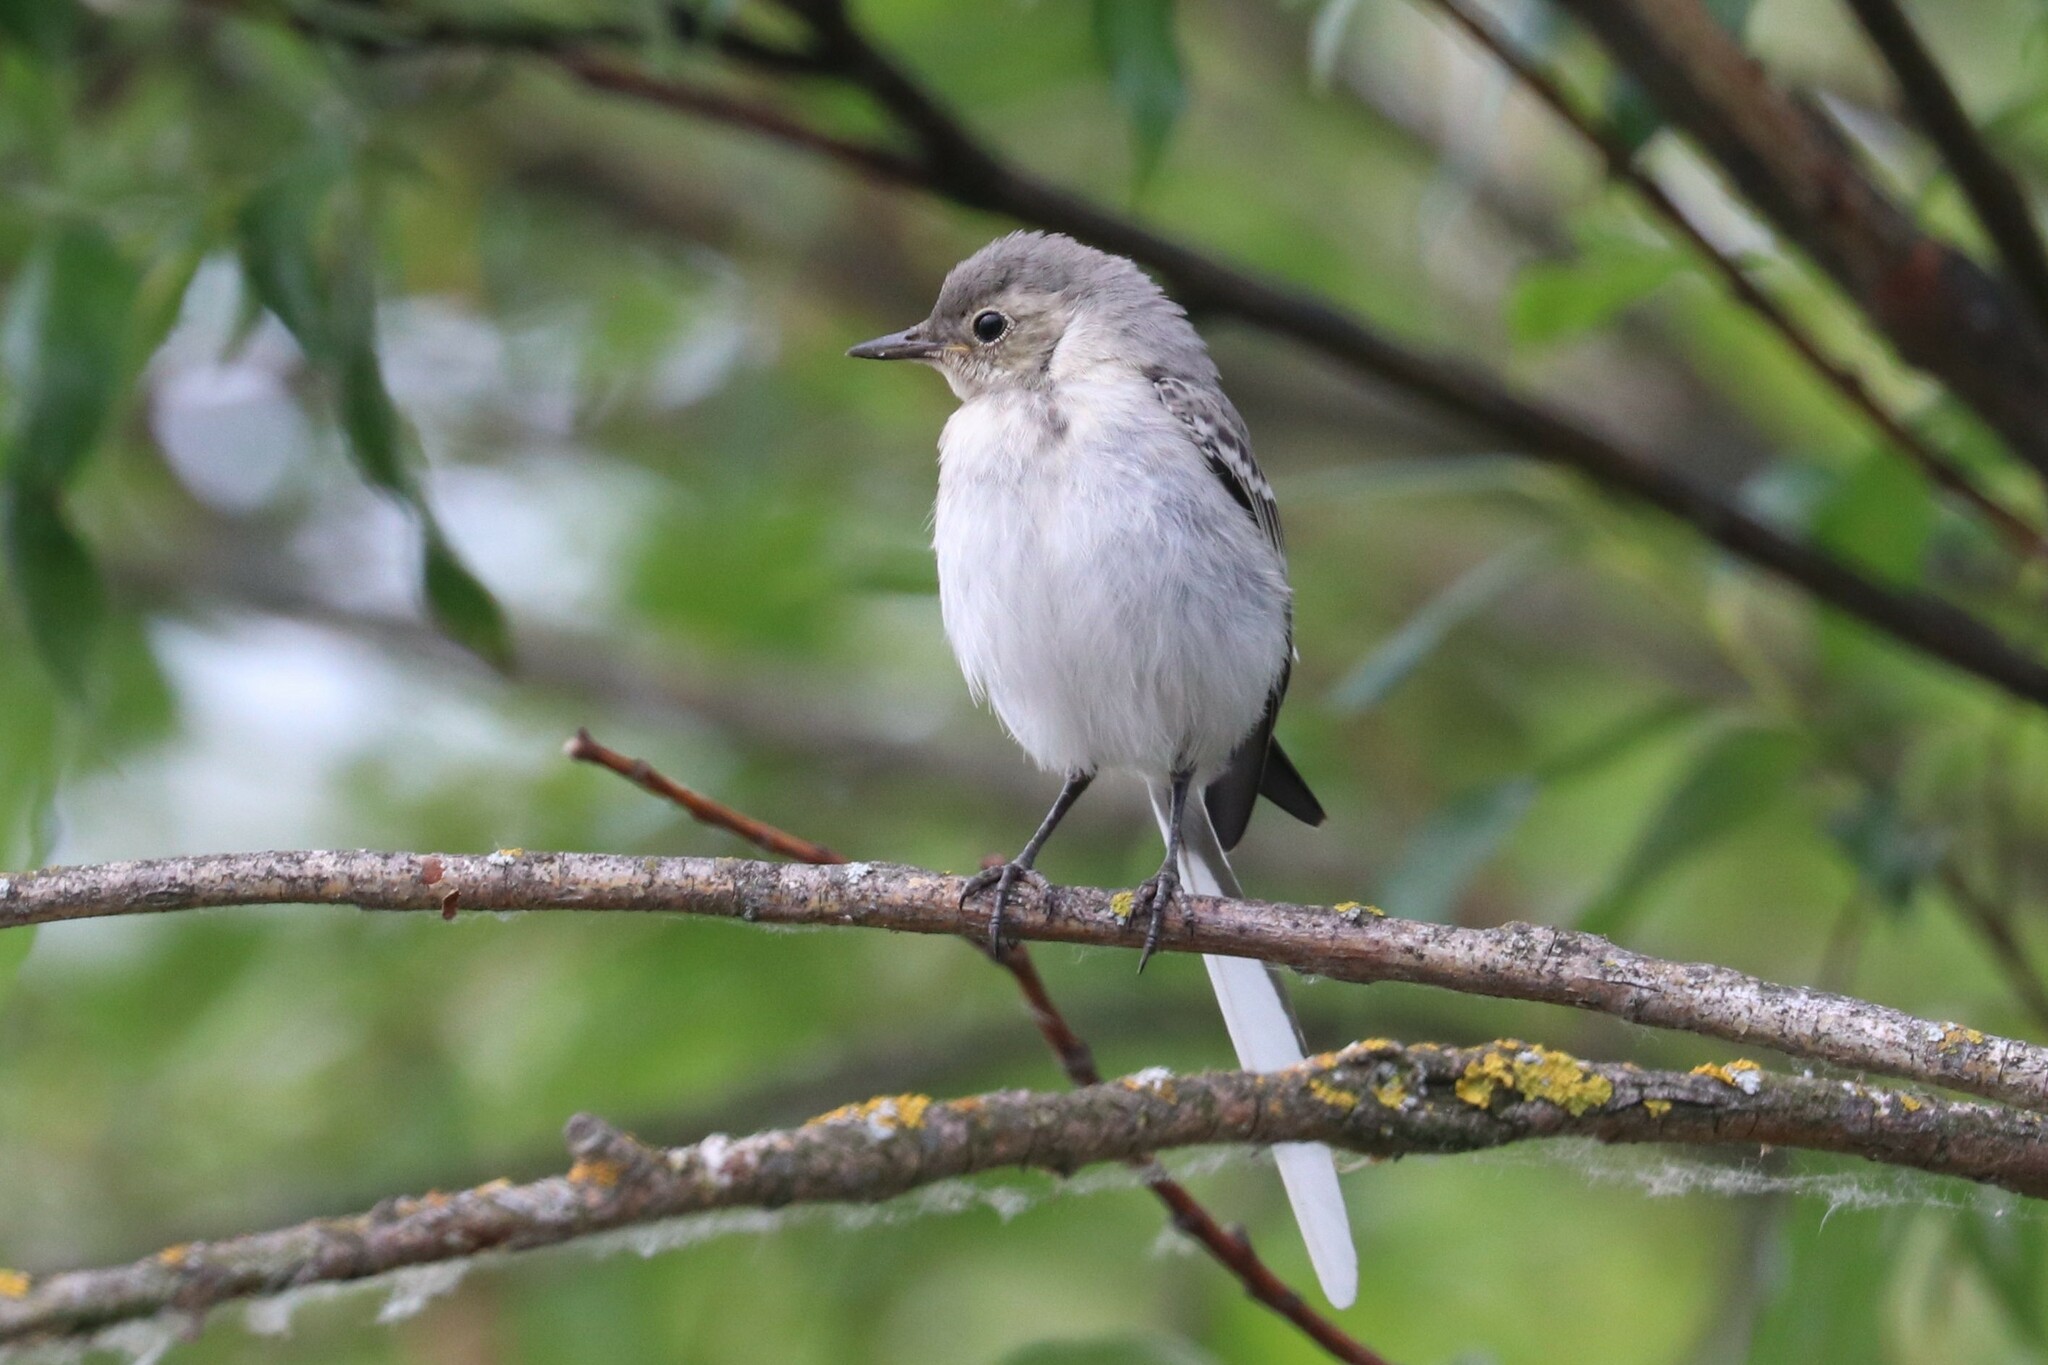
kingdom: Animalia
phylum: Chordata
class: Aves
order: Passeriformes
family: Motacillidae
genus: Motacilla
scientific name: Motacilla alba
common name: White wagtail
